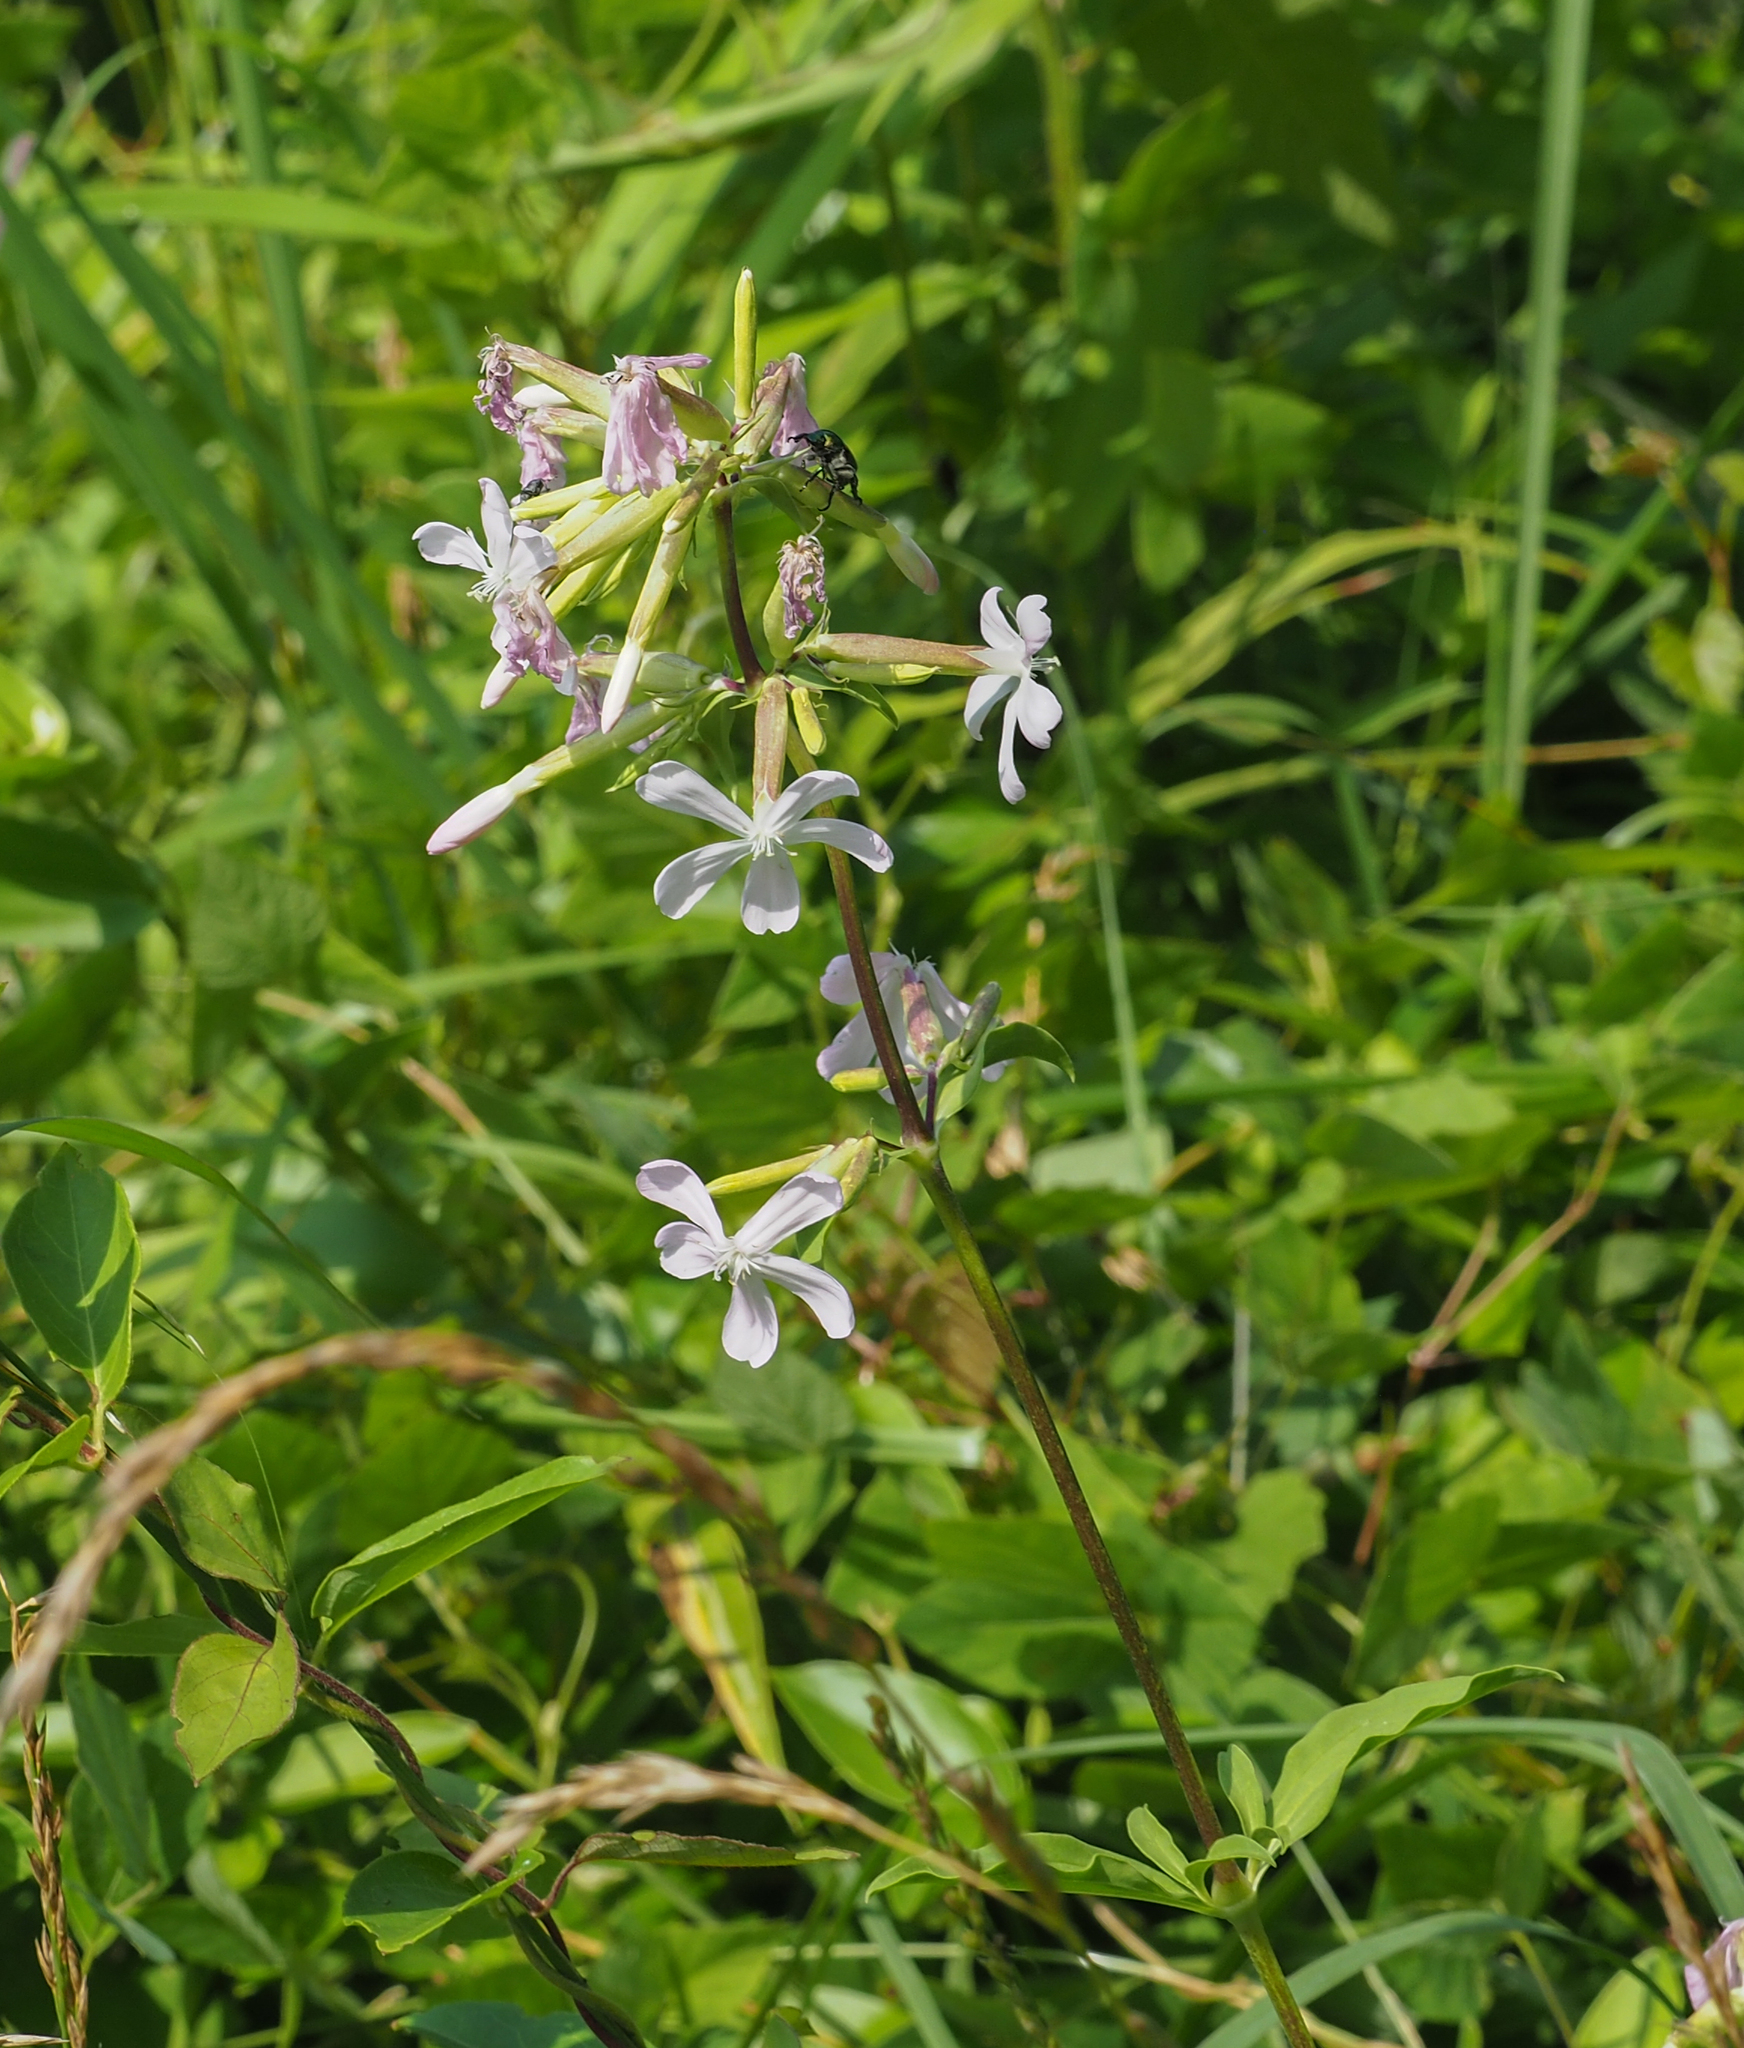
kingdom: Plantae
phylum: Tracheophyta
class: Magnoliopsida
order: Caryophyllales
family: Caryophyllaceae
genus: Saponaria
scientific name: Saponaria officinalis
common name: Soapwort
